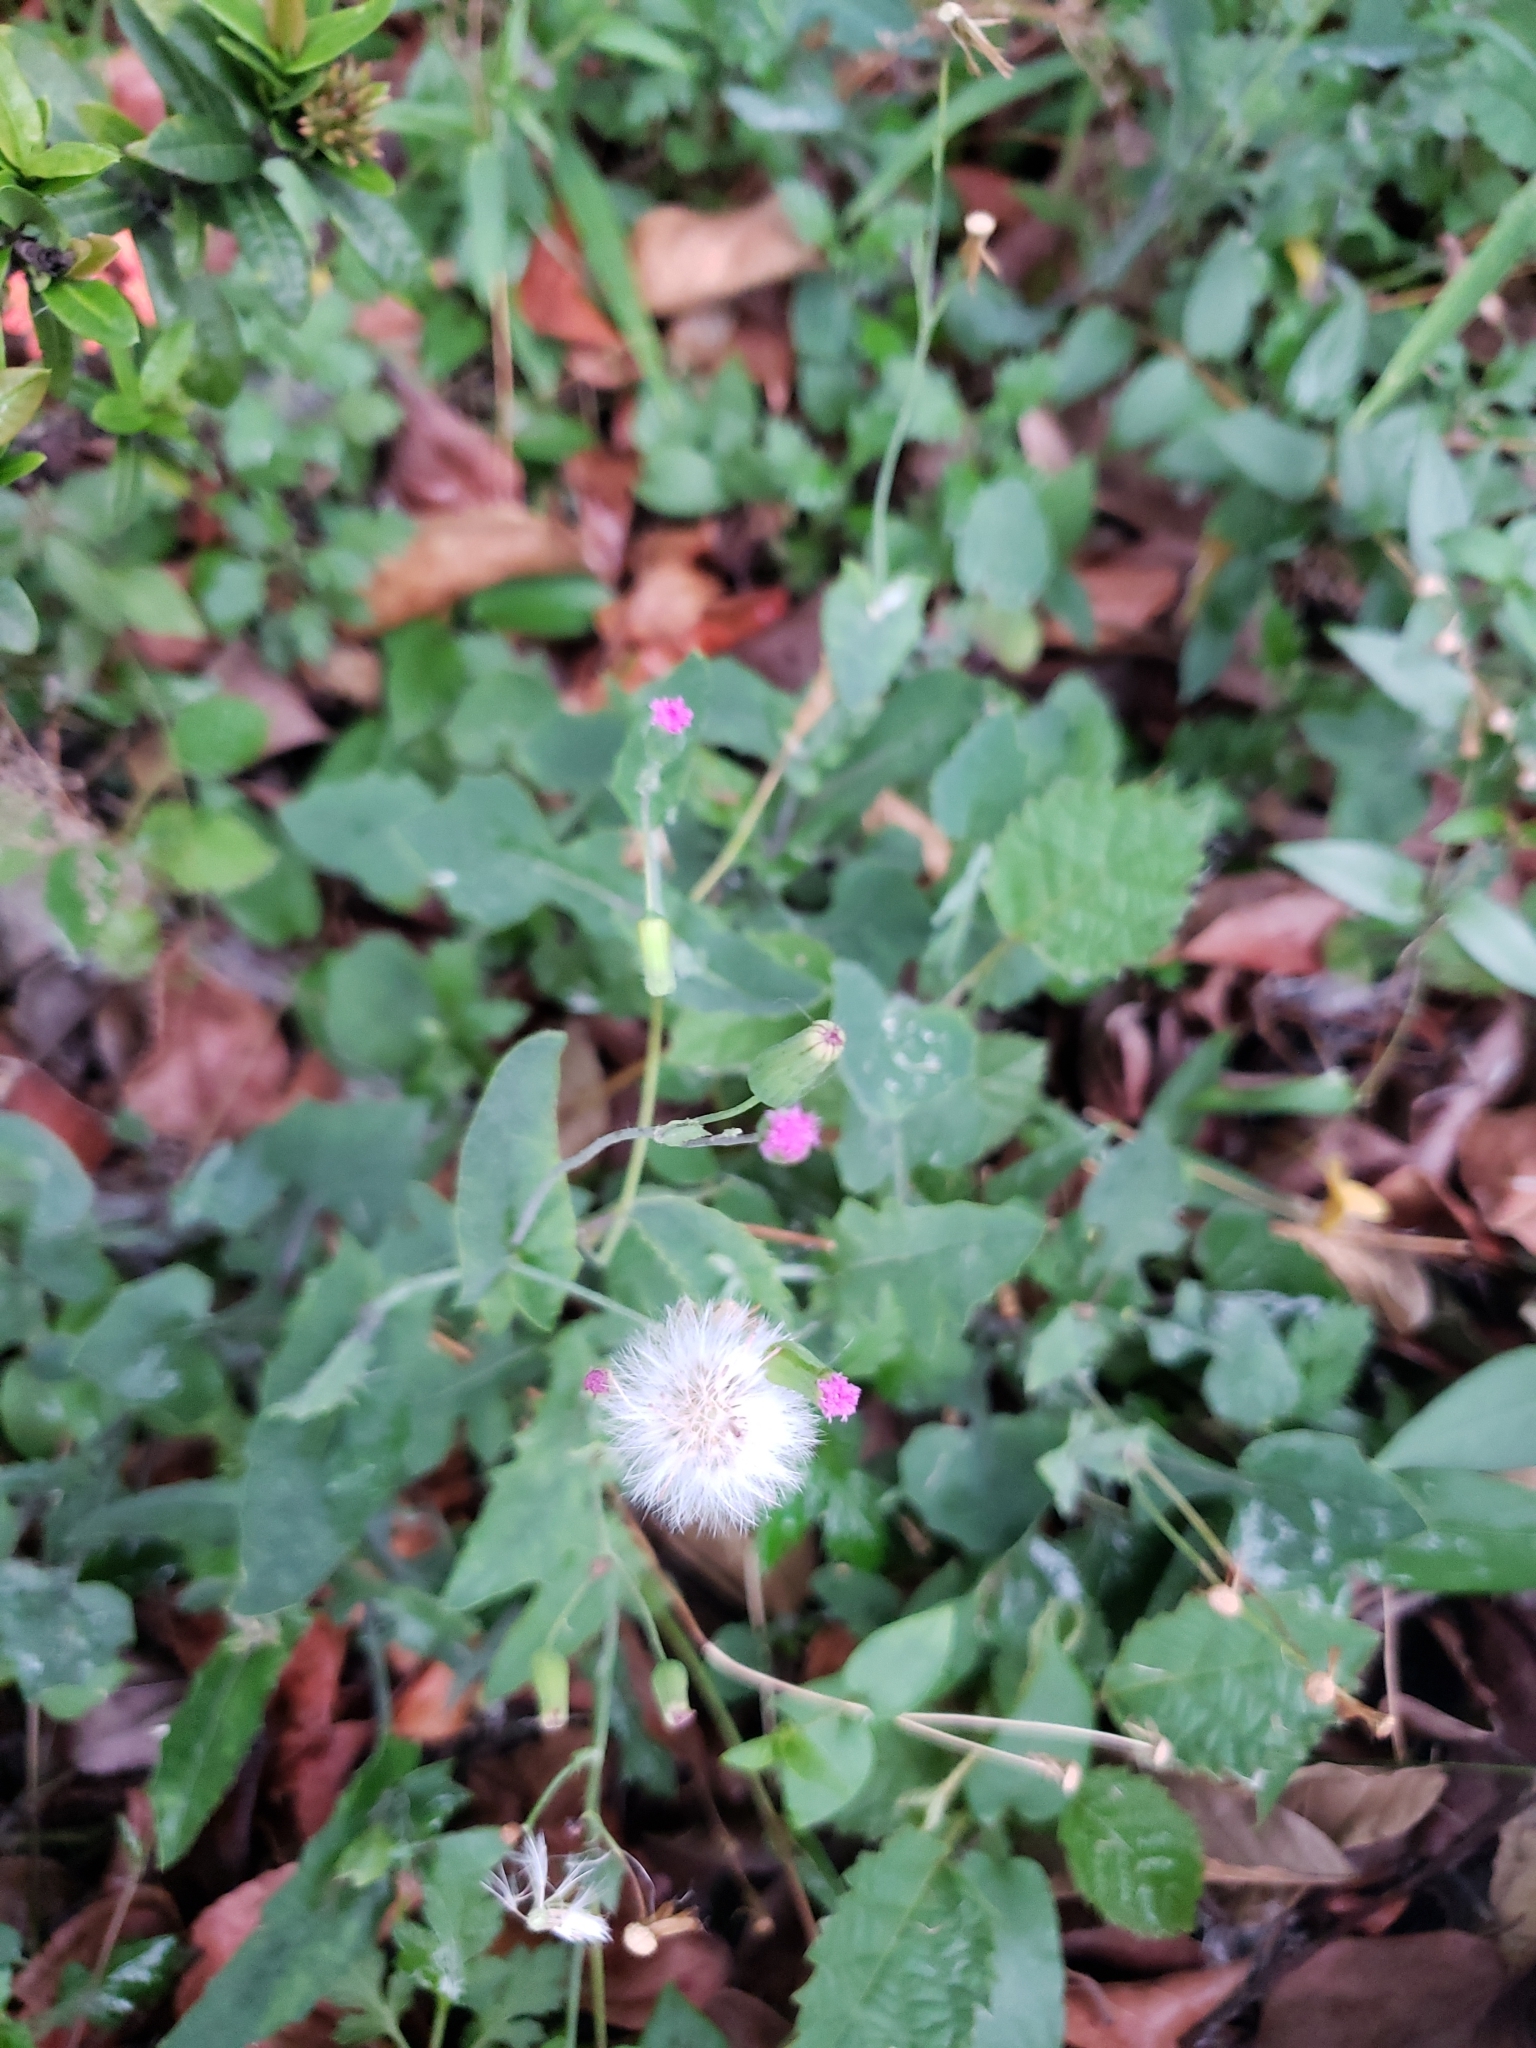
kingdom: Plantae
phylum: Tracheophyta
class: Magnoliopsida
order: Asterales
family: Asteraceae
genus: Emilia
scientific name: Emilia javanica
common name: Tassel-flower
